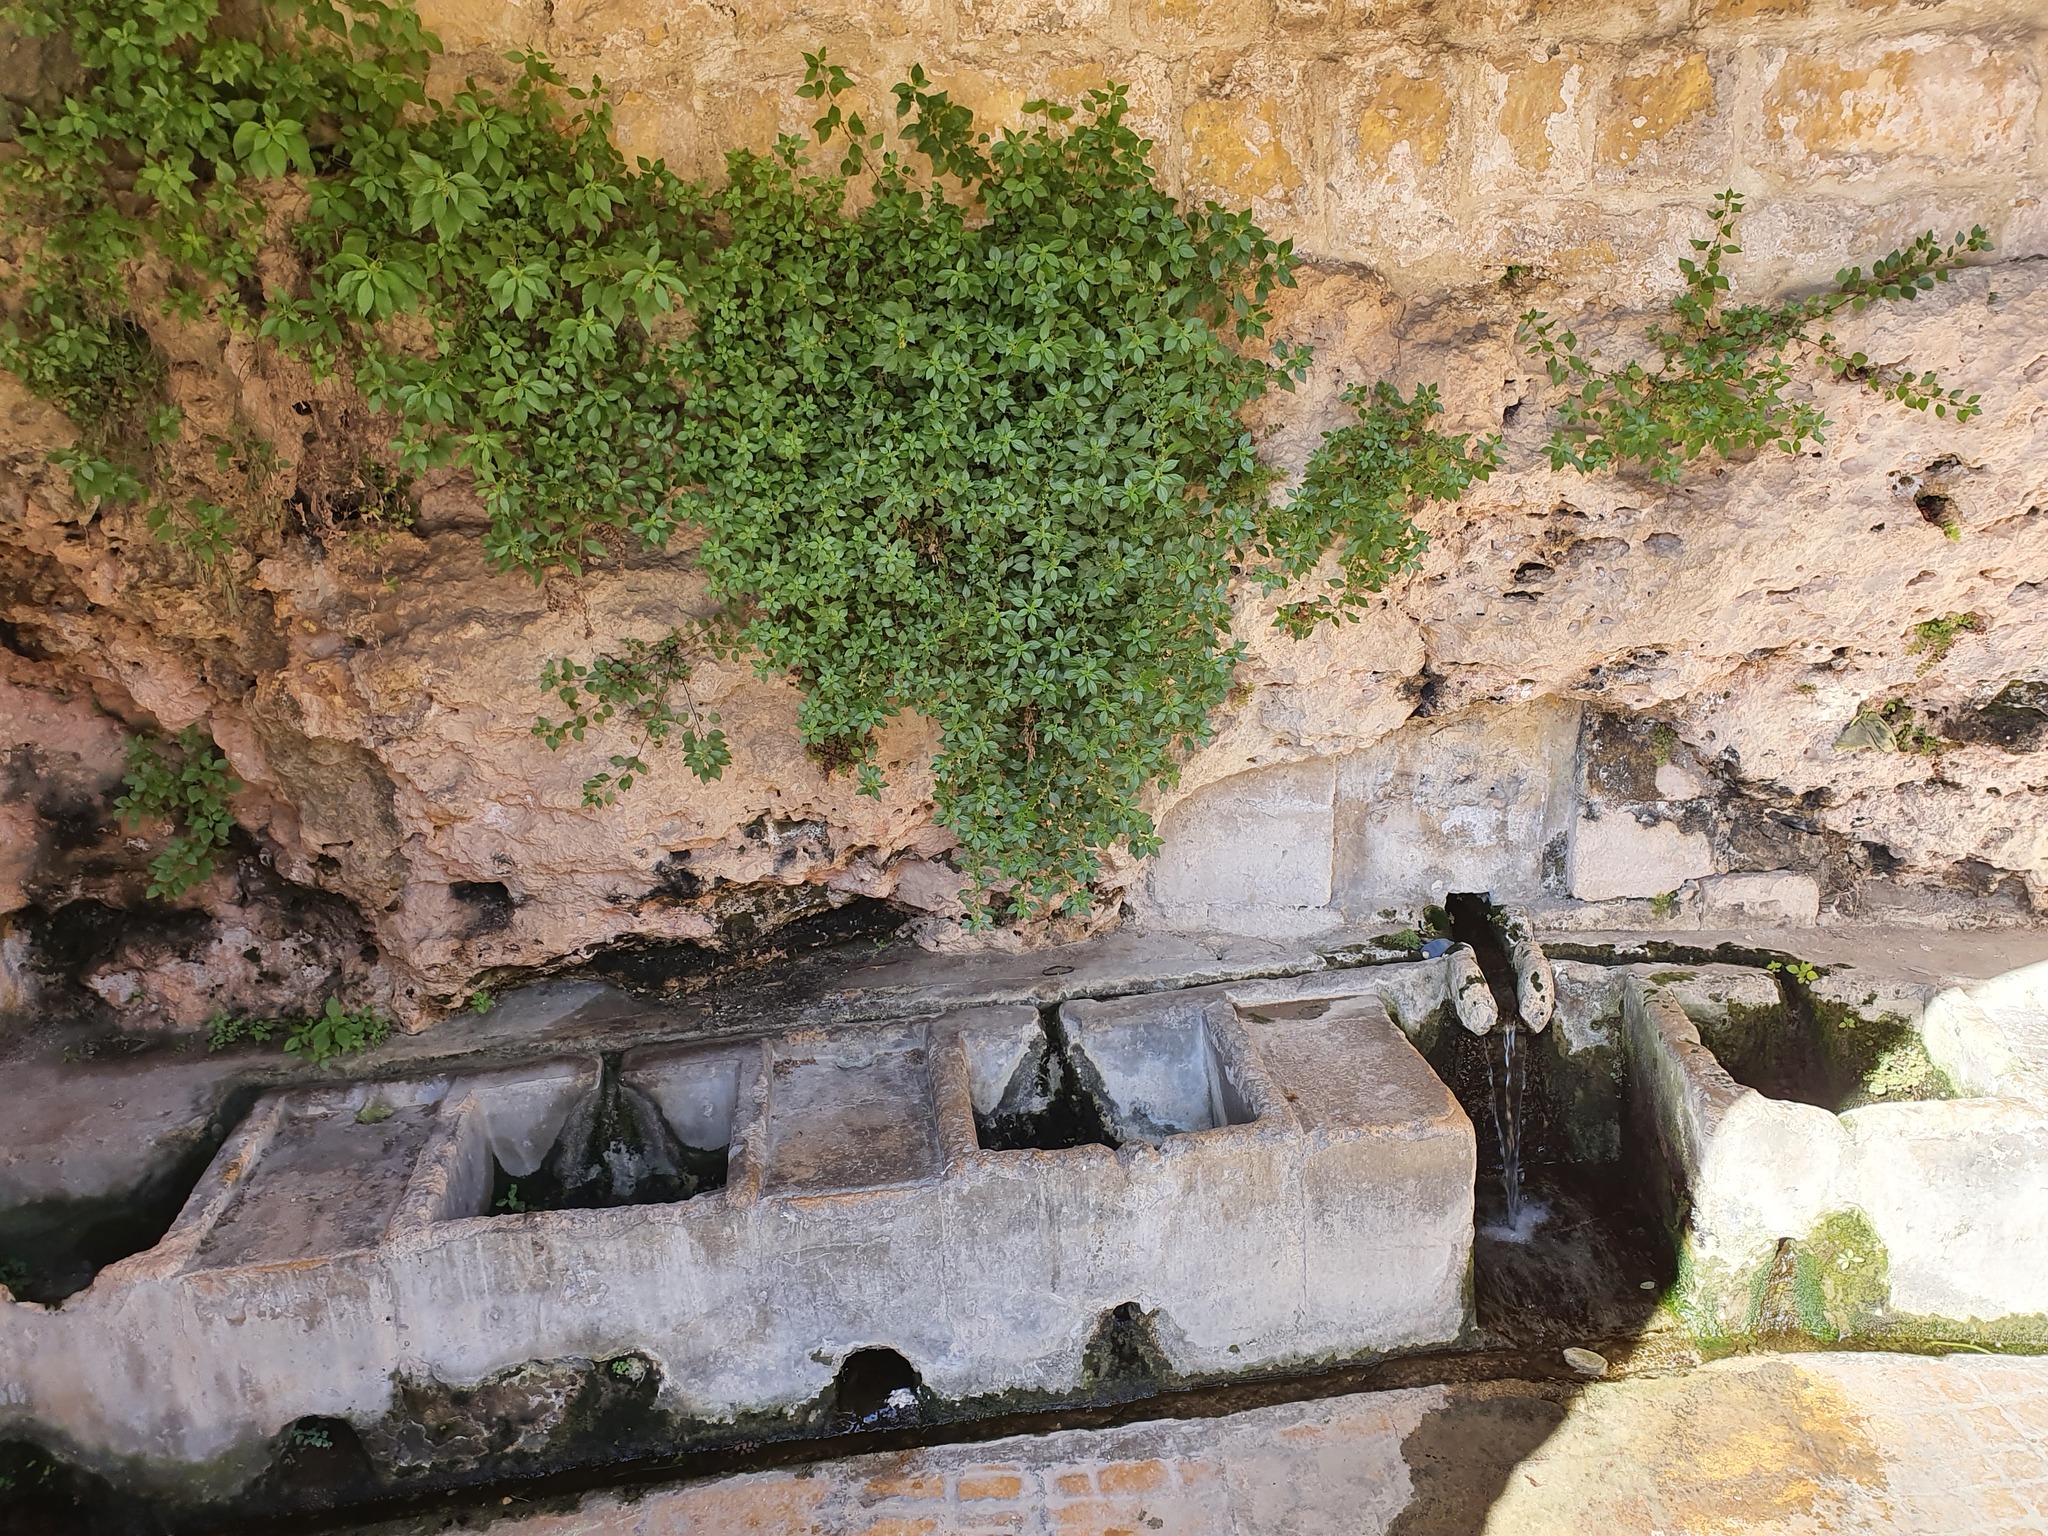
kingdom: Plantae
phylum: Tracheophyta
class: Magnoliopsida
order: Rosales
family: Urticaceae
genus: Parietaria
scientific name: Parietaria judaica
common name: Pellitory-of-the-wall
